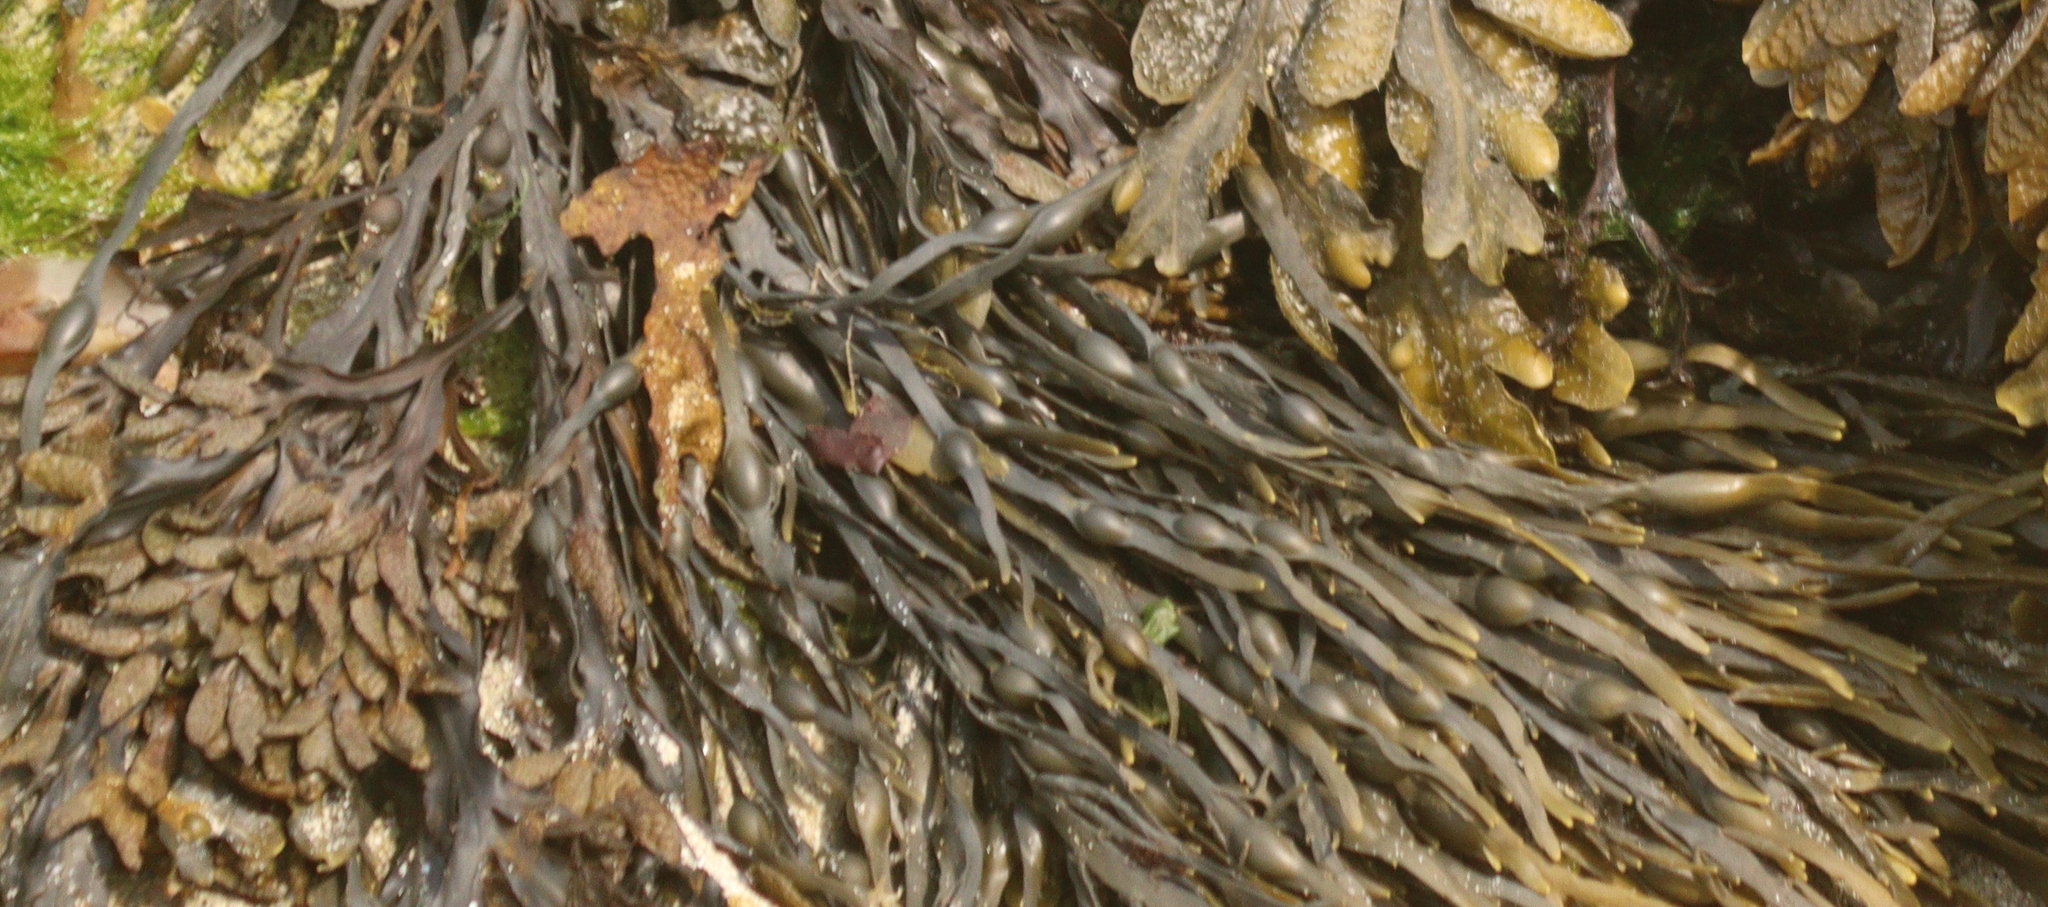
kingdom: Chromista
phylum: Ochrophyta
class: Phaeophyceae
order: Fucales
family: Fucaceae
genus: Ascophyllum
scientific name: Ascophyllum nodosum
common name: Knotted wrack
